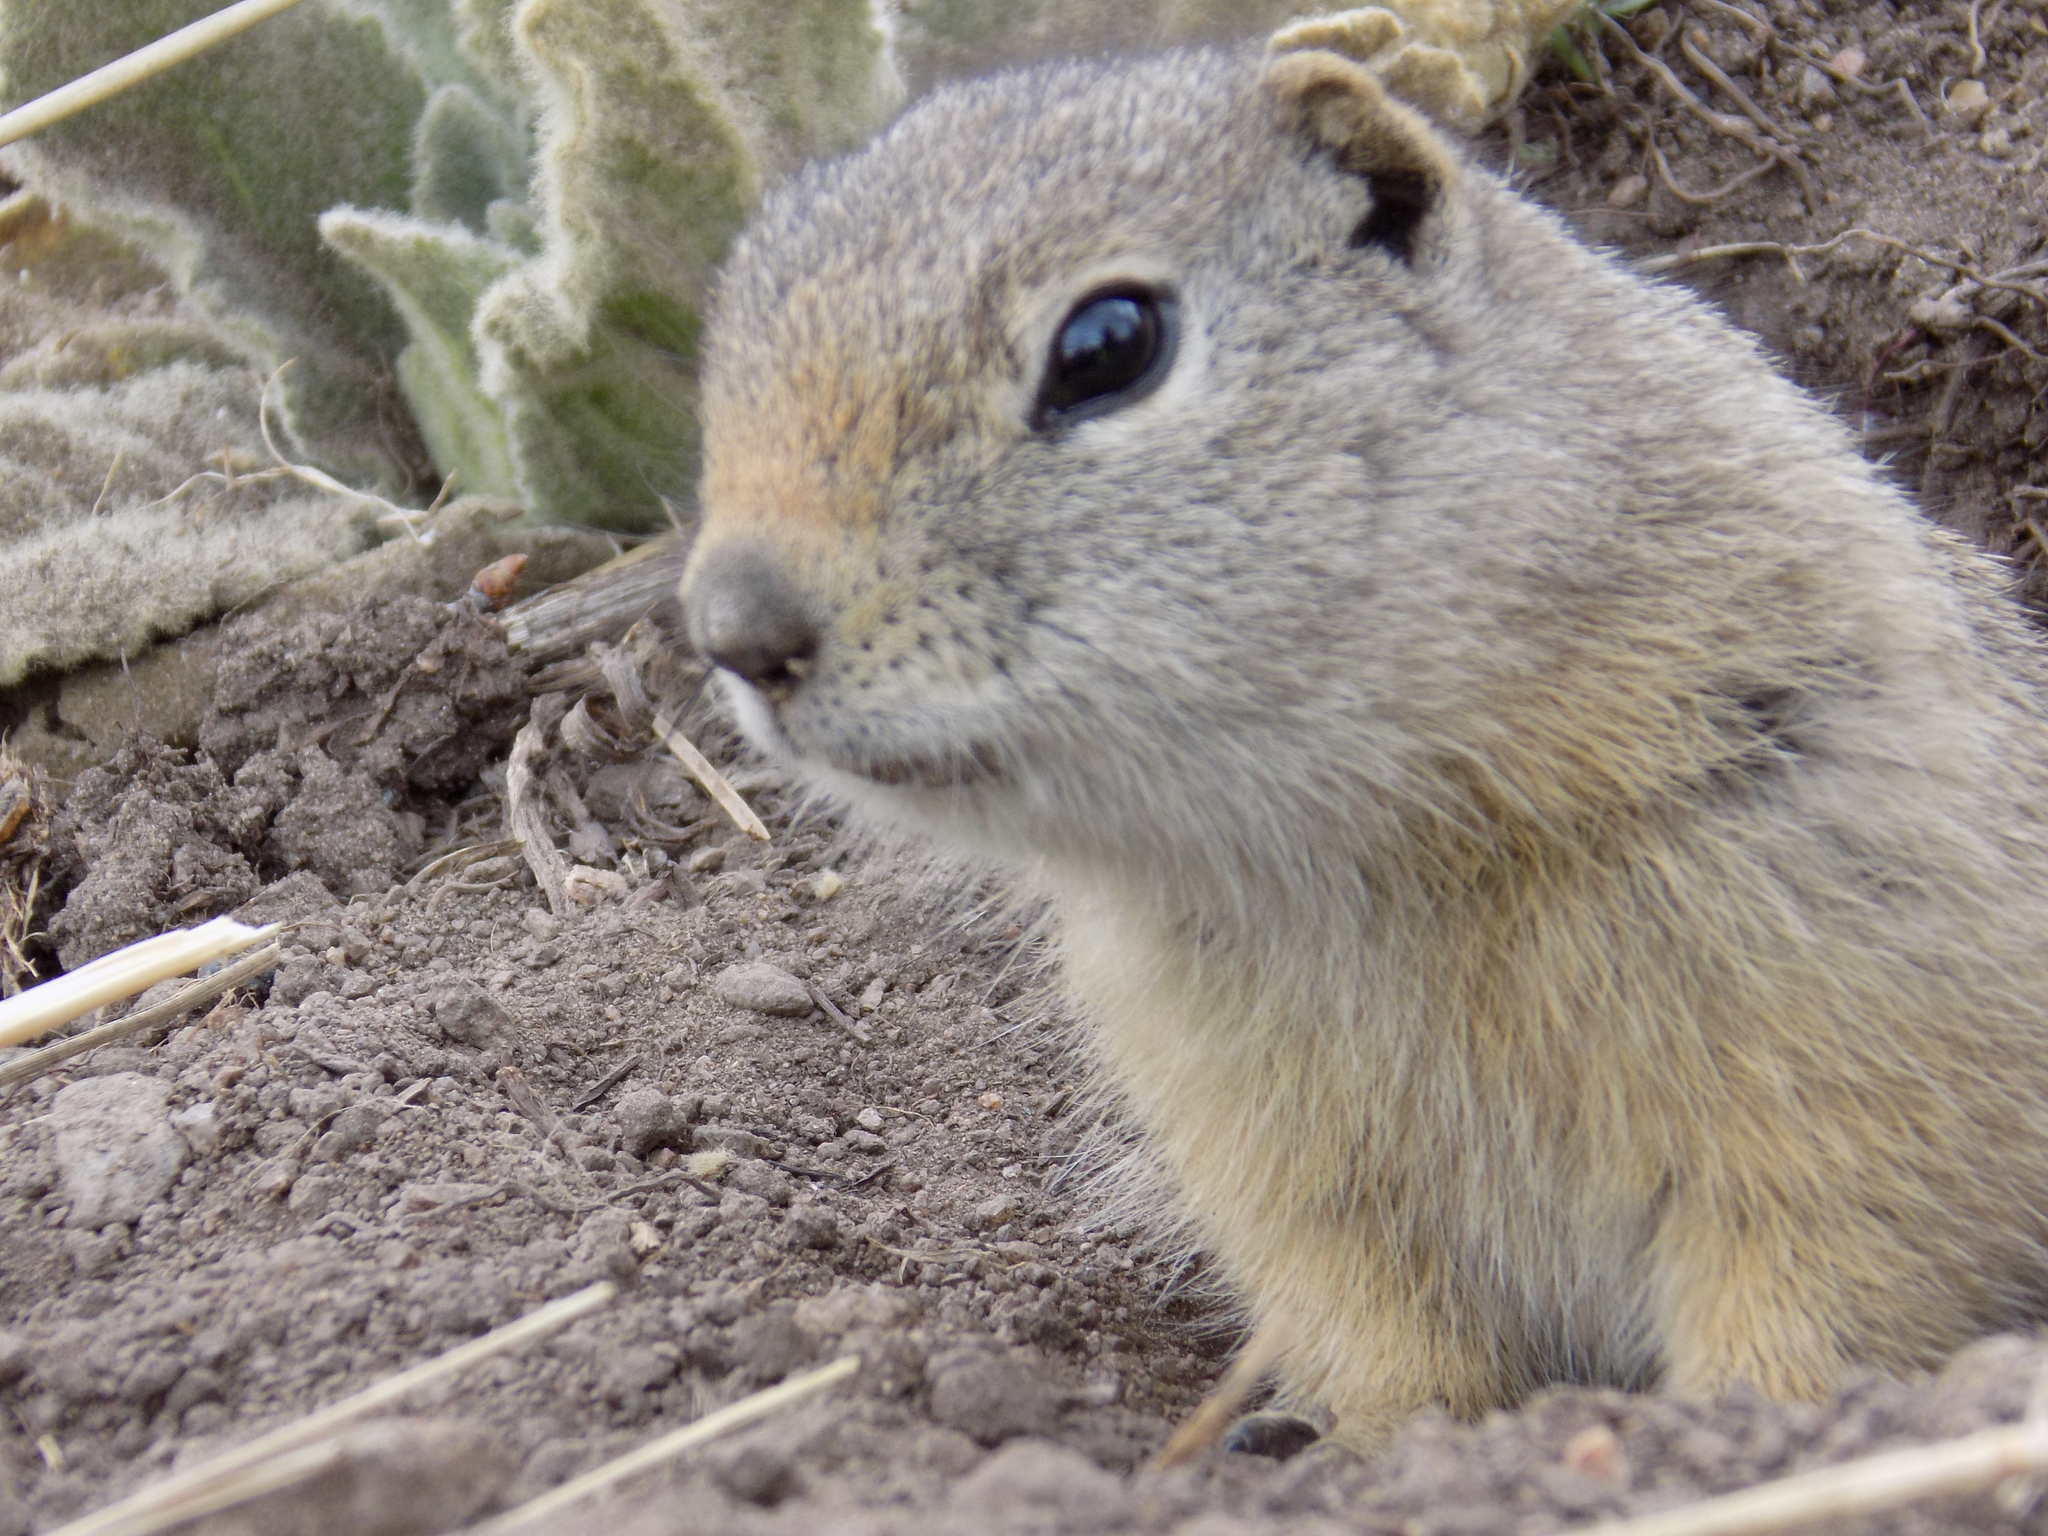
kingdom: Animalia
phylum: Chordata
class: Mammalia
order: Rodentia
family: Sciuridae
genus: Urocitellus
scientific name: Urocitellus elegans
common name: Wyoming ground squirrel
